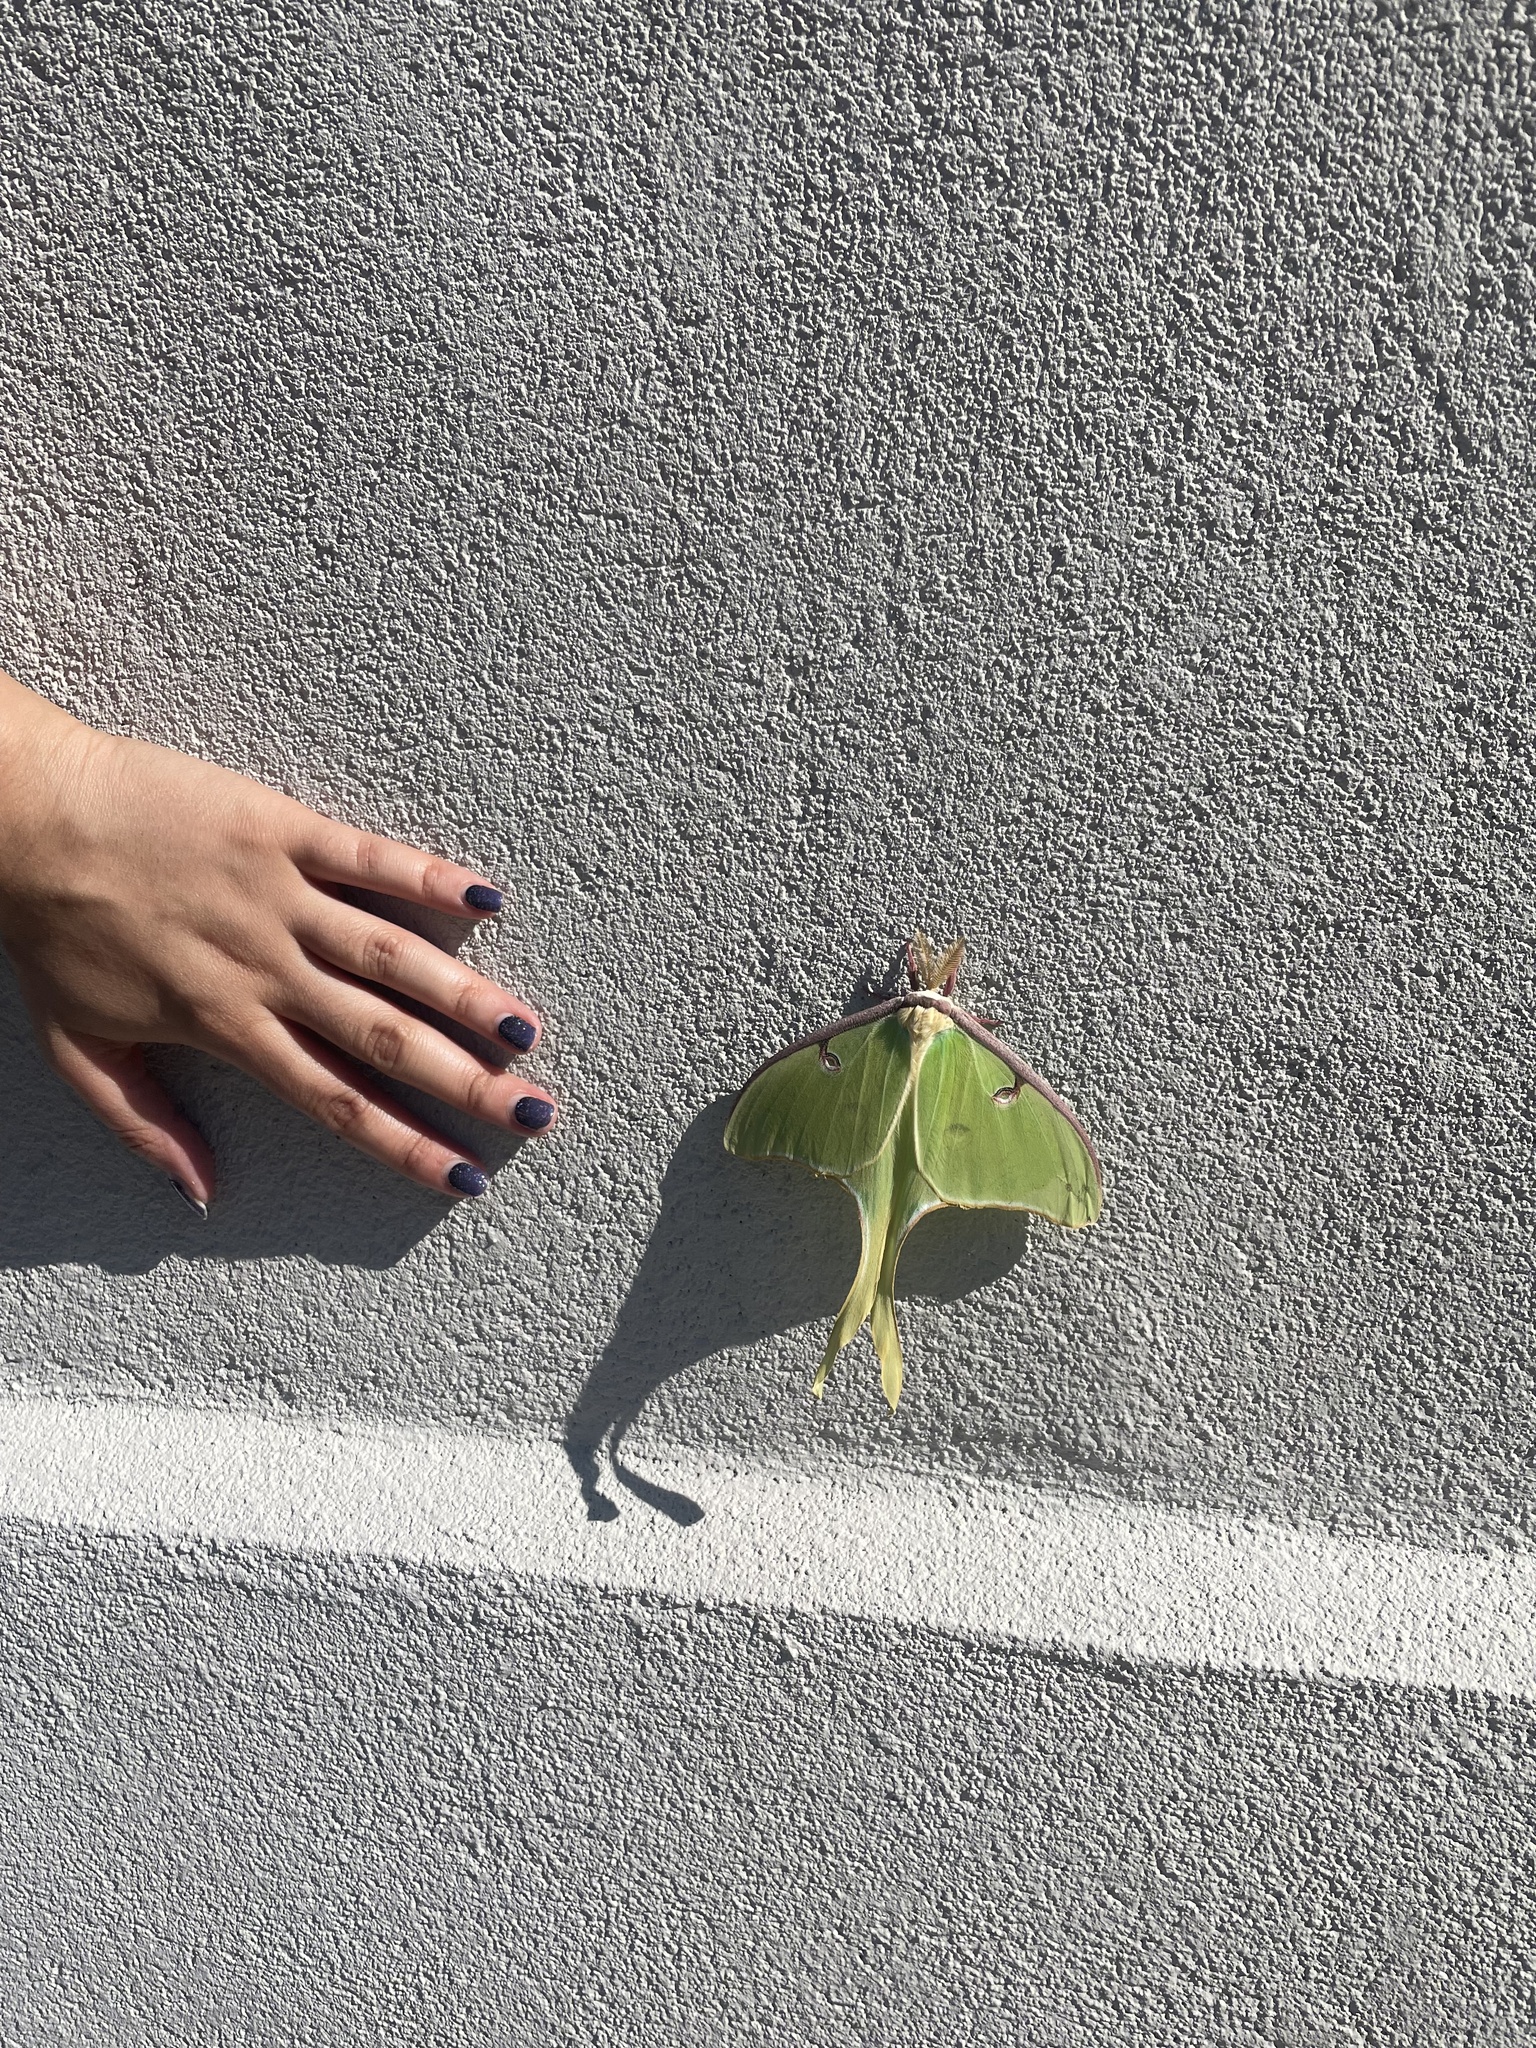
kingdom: Animalia
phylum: Arthropoda
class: Insecta
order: Lepidoptera
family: Saturniidae
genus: Actias
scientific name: Actias luna
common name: Luna moth
